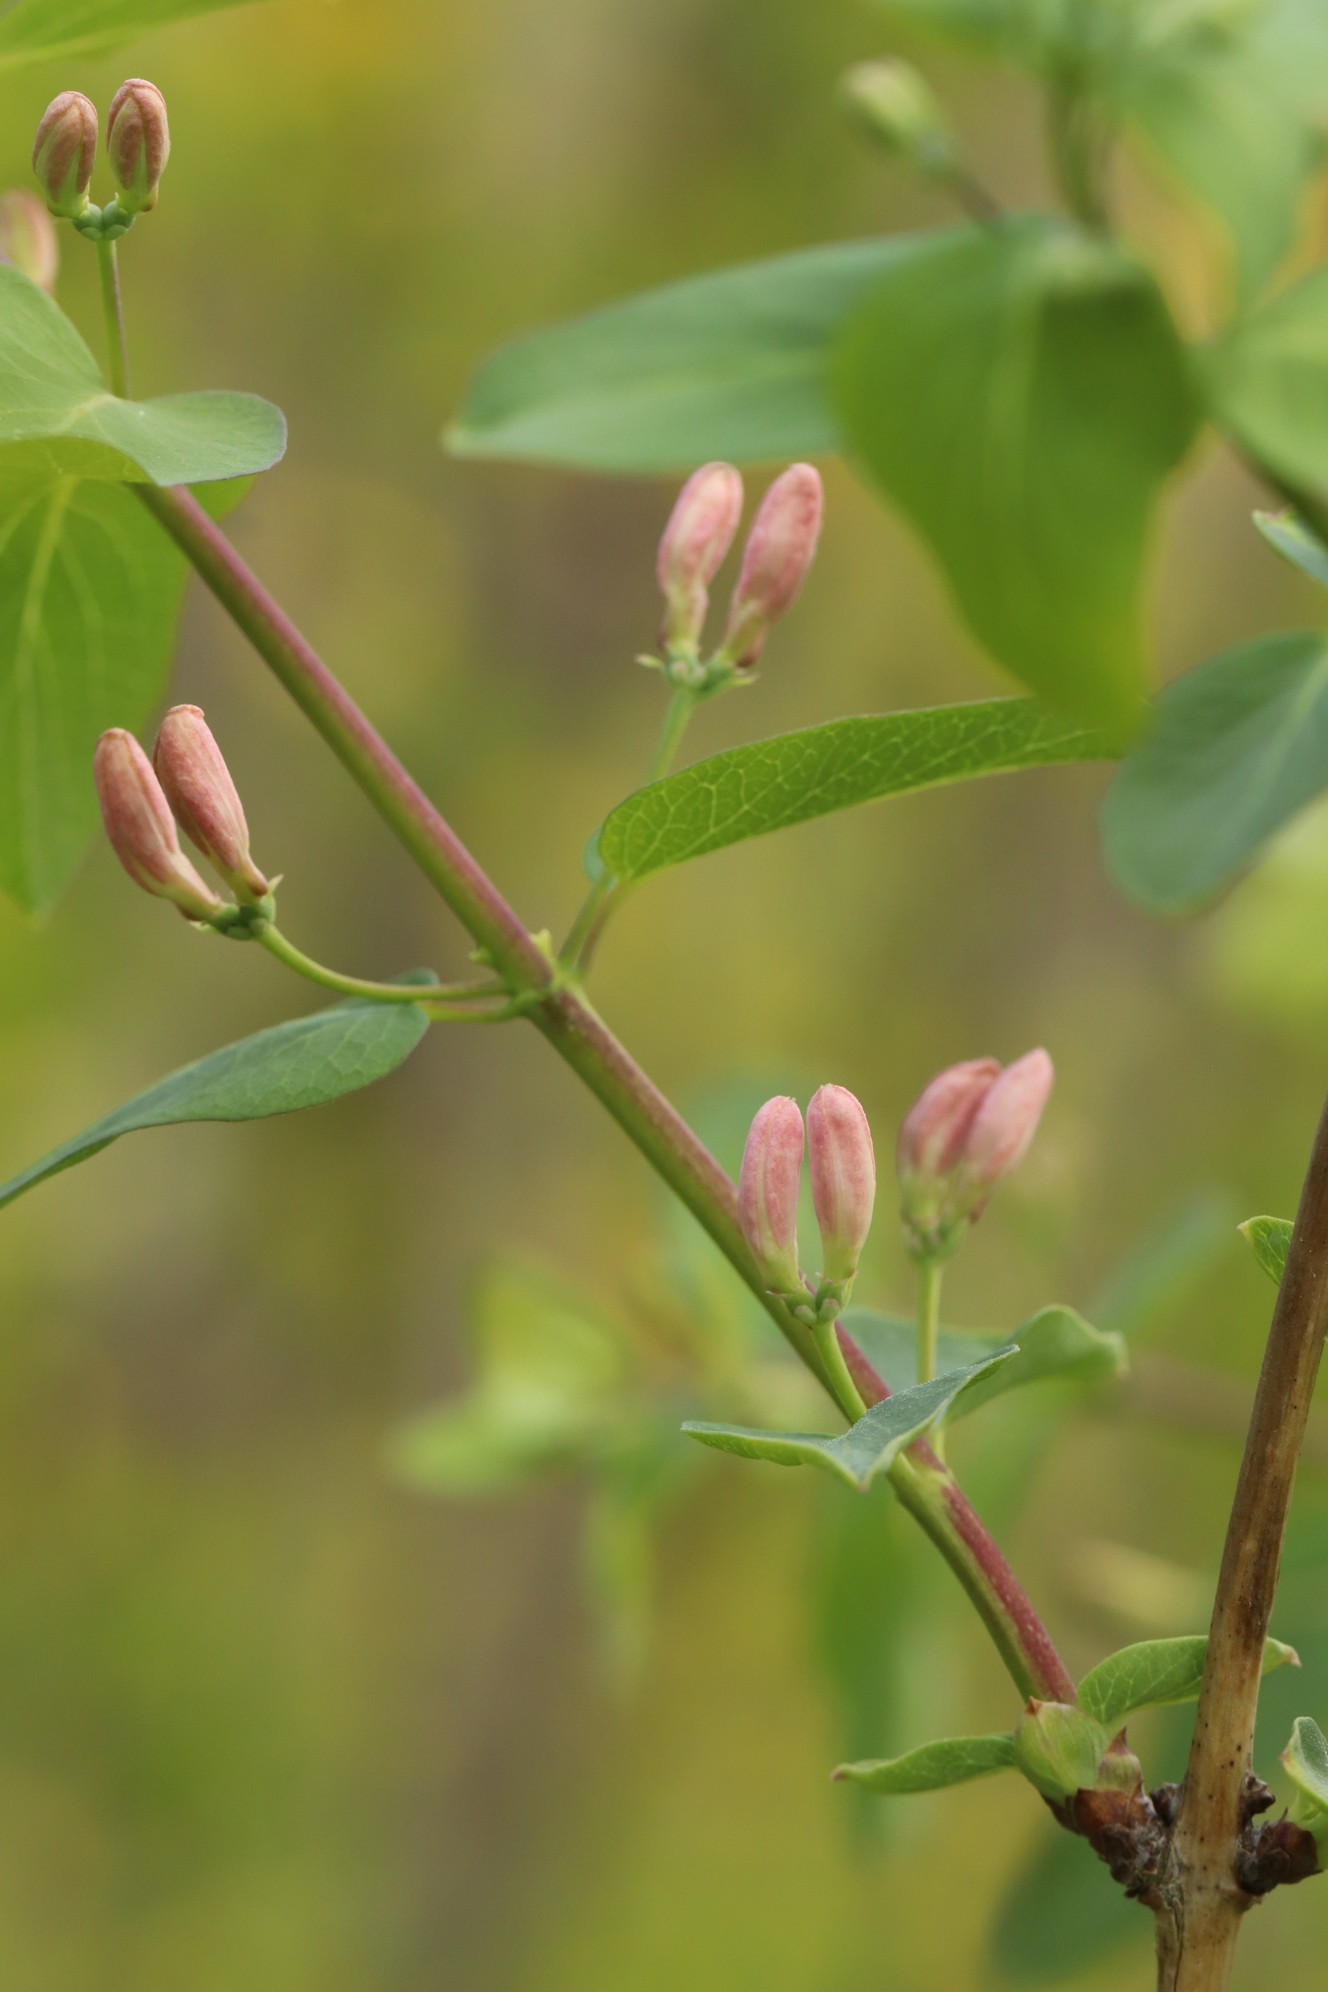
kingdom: Plantae
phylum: Tracheophyta
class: Magnoliopsida
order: Dipsacales
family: Caprifoliaceae
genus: Lonicera
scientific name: Lonicera tatarica
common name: Tatarian honeysuckle
